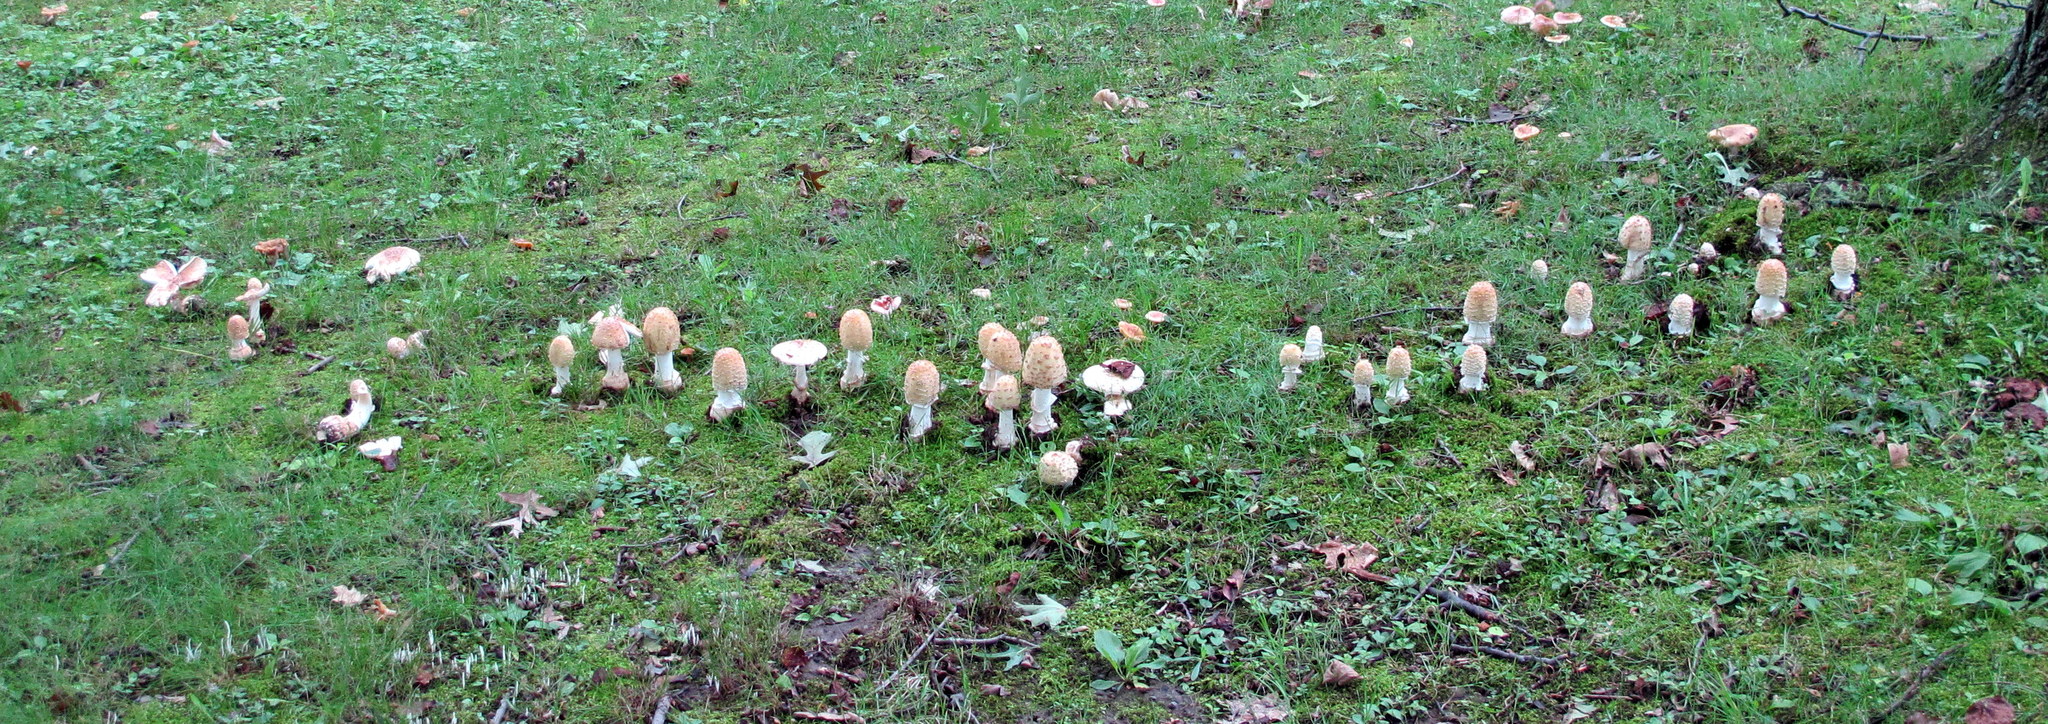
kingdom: Fungi
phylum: Basidiomycota
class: Agaricomycetes
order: Agaricales
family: Amanitaceae
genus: Amanita
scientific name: Amanita velatipes
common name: Great funnel-veil amanita
